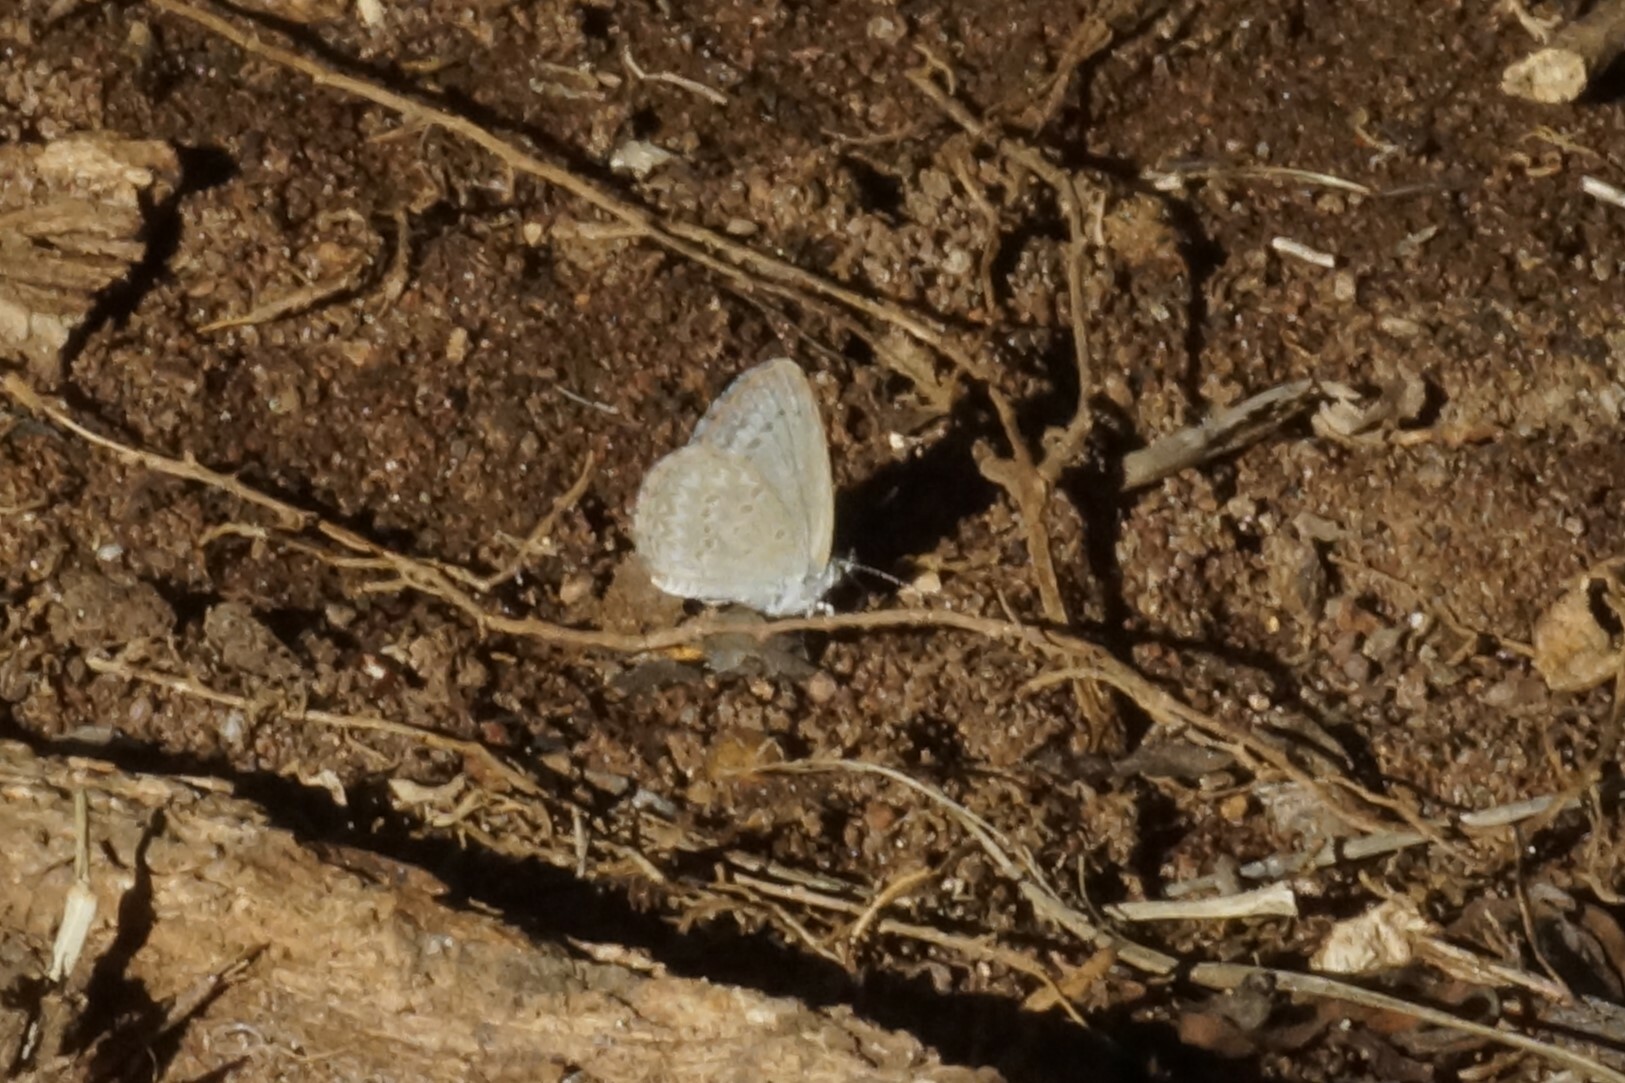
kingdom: Animalia
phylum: Arthropoda
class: Insecta
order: Lepidoptera
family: Lycaenidae
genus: Zizina
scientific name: Zizina otis
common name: Lesser grass blue
